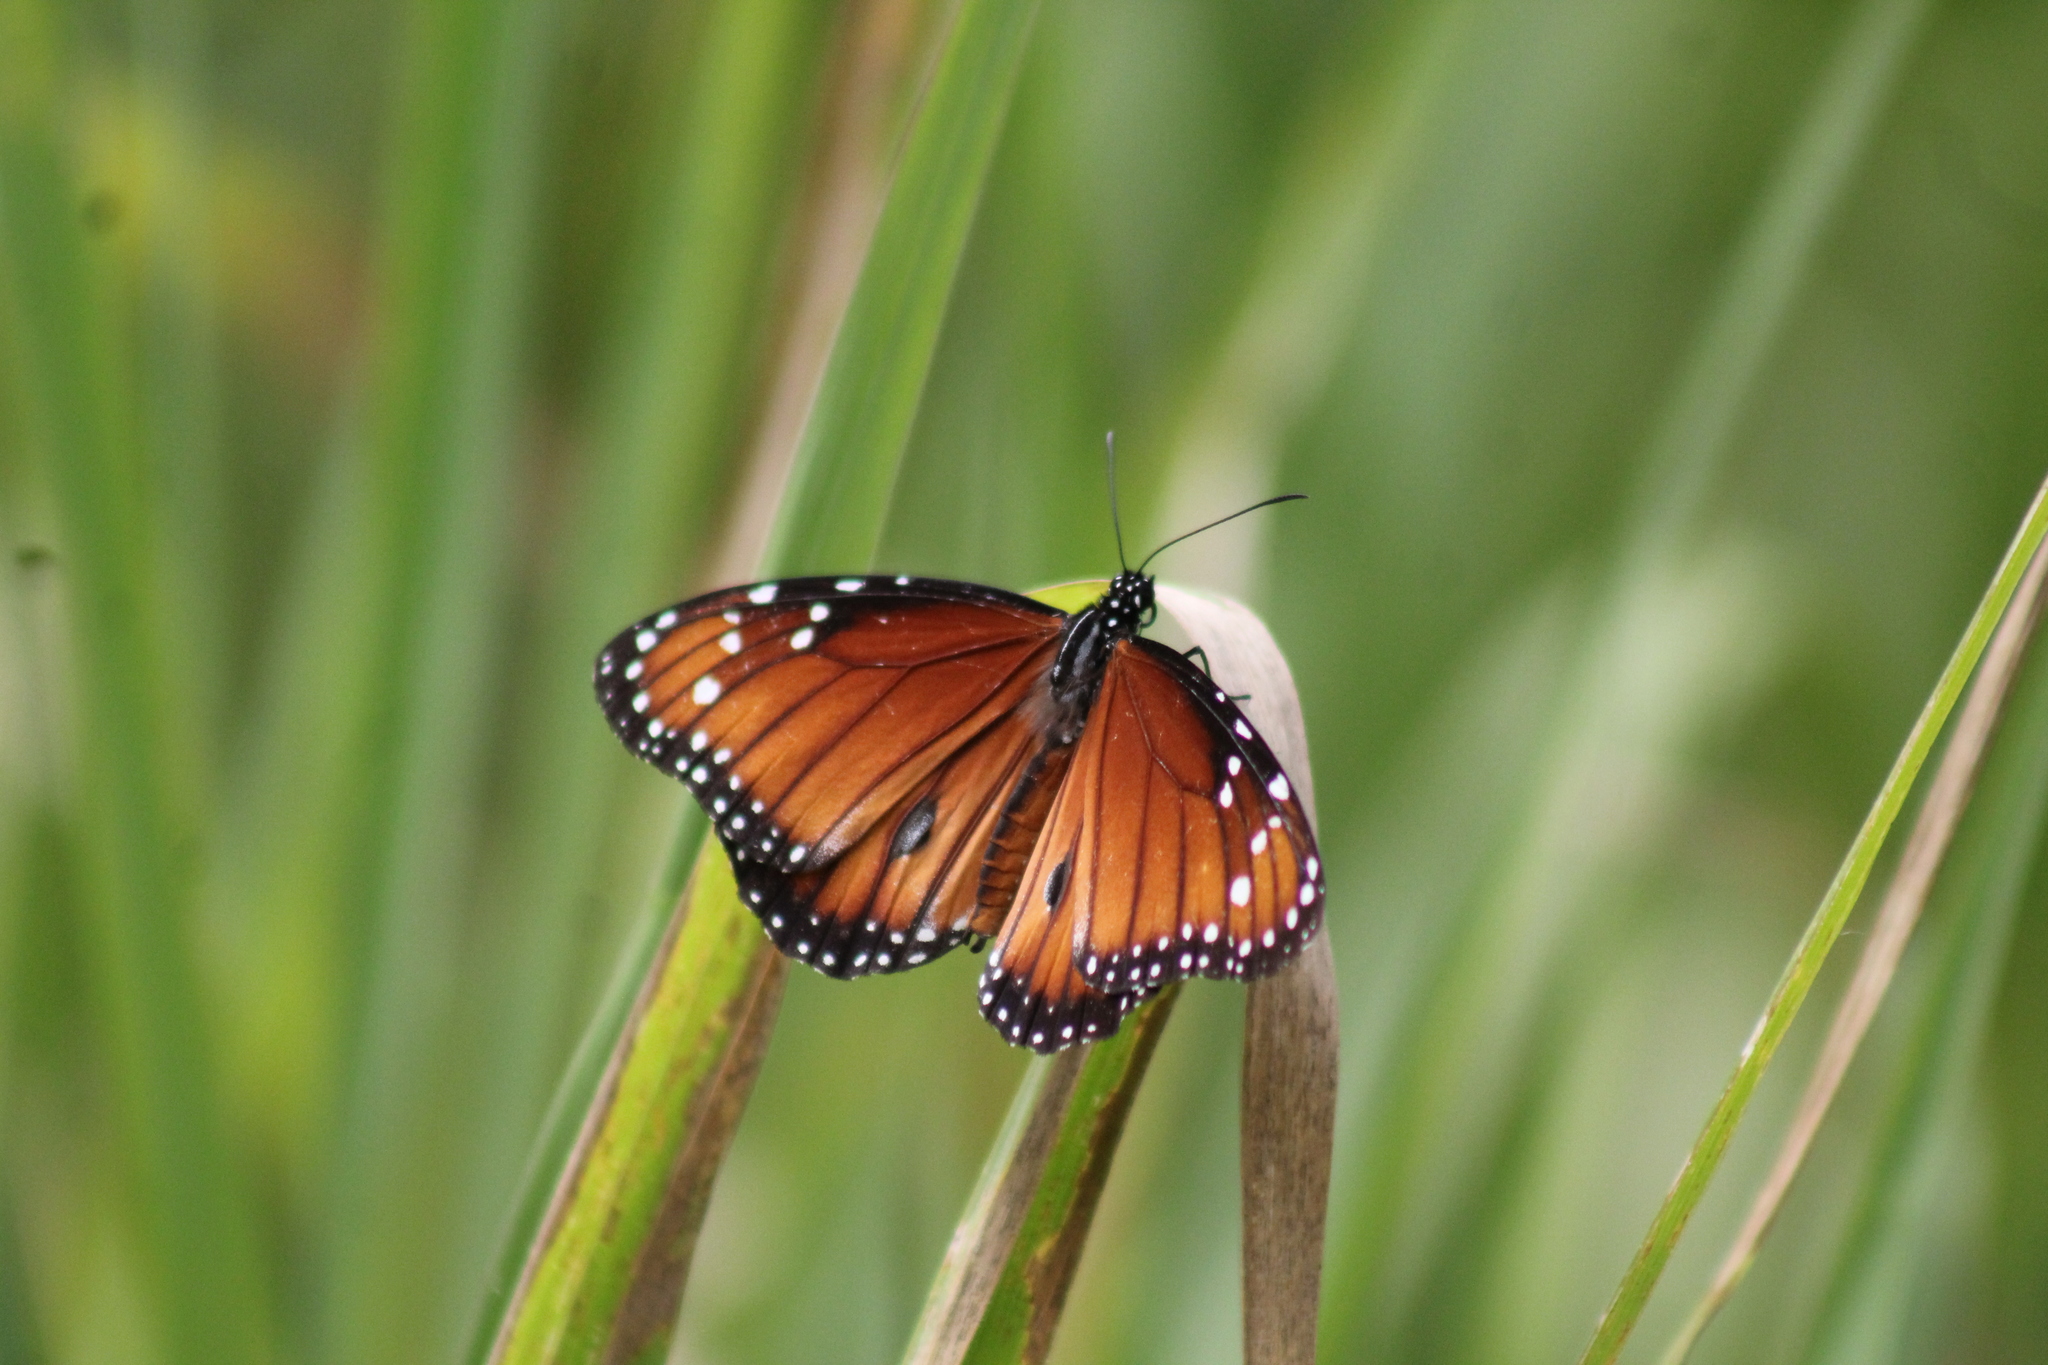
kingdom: Animalia
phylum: Arthropoda
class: Insecta
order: Lepidoptera
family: Nymphalidae
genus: Danaus
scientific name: Danaus eresimus
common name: Soldier
